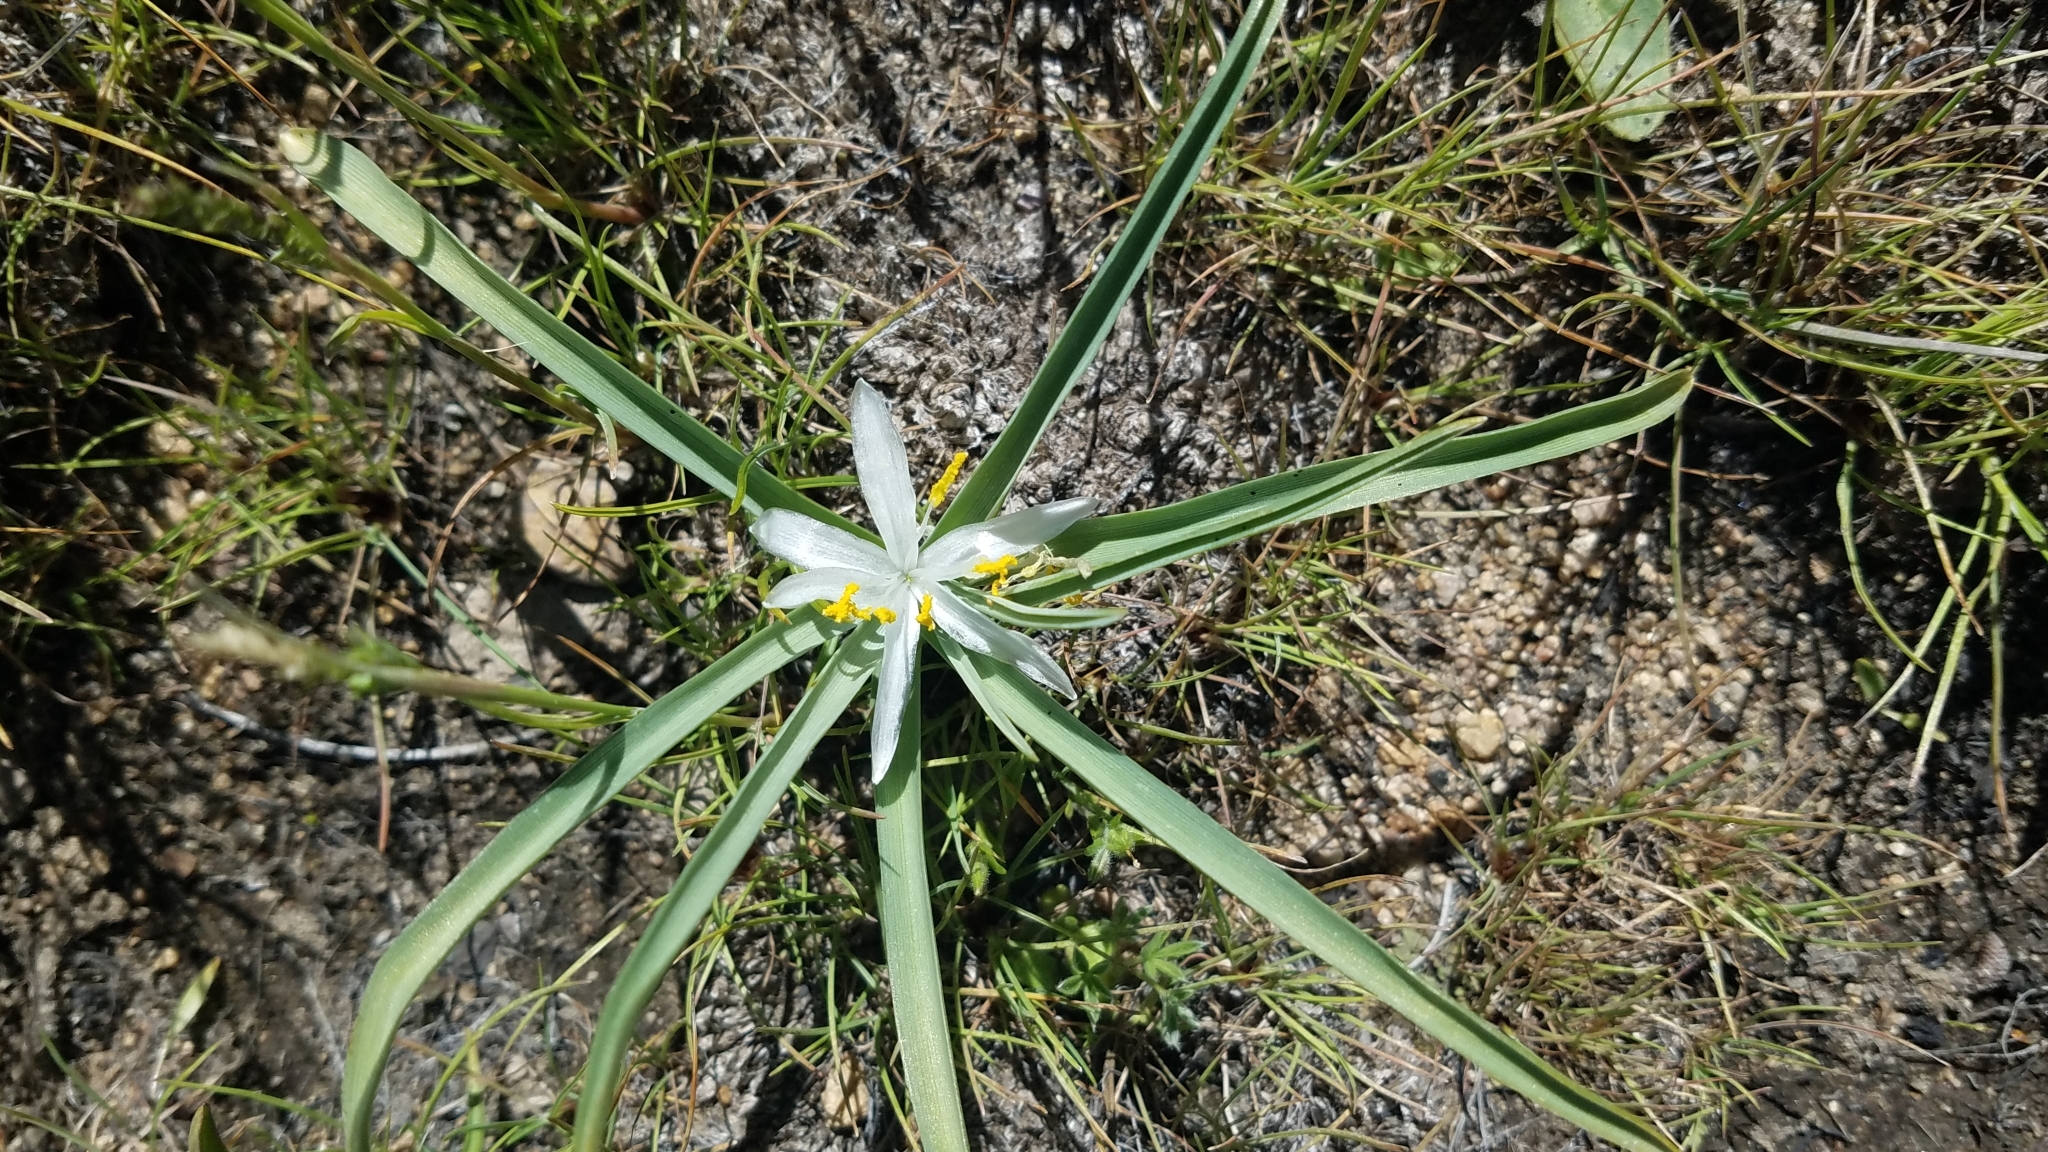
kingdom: Plantae
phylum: Tracheophyta
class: Liliopsida
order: Asparagales
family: Asparagaceae
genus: Leucocrinum
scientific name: Leucocrinum montanum
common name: Mountain-lily
